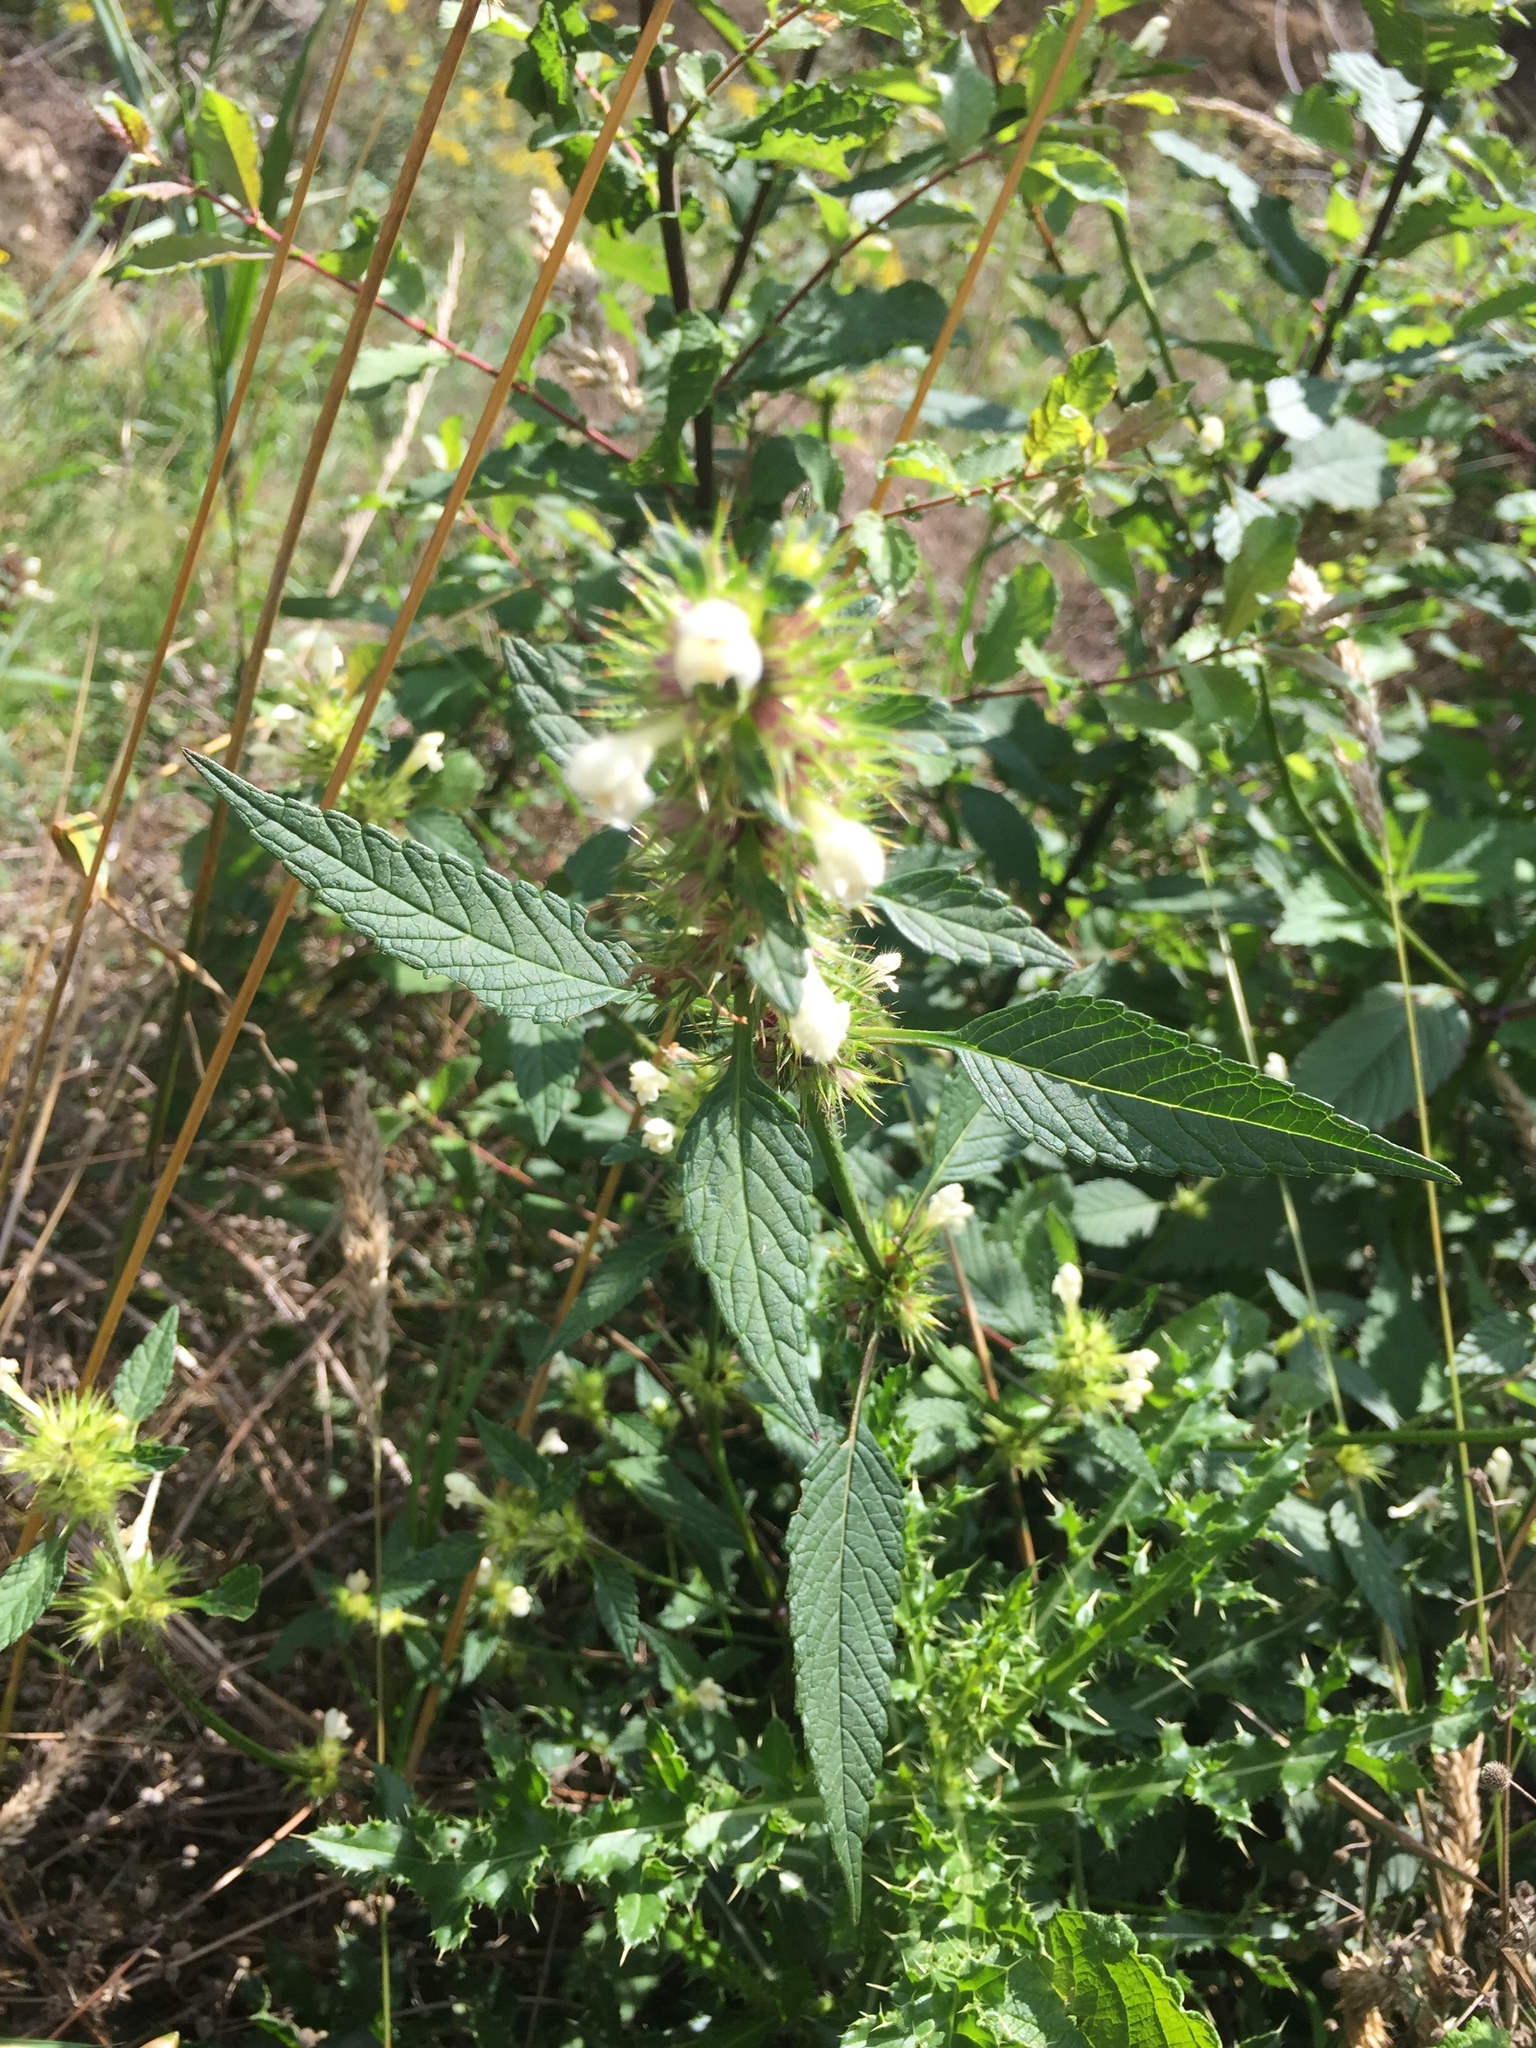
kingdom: Plantae
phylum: Tracheophyta
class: Magnoliopsida
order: Lamiales
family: Lamiaceae
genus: Galeopsis
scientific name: Galeopsis tetrahit
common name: Common hemp-nettle
